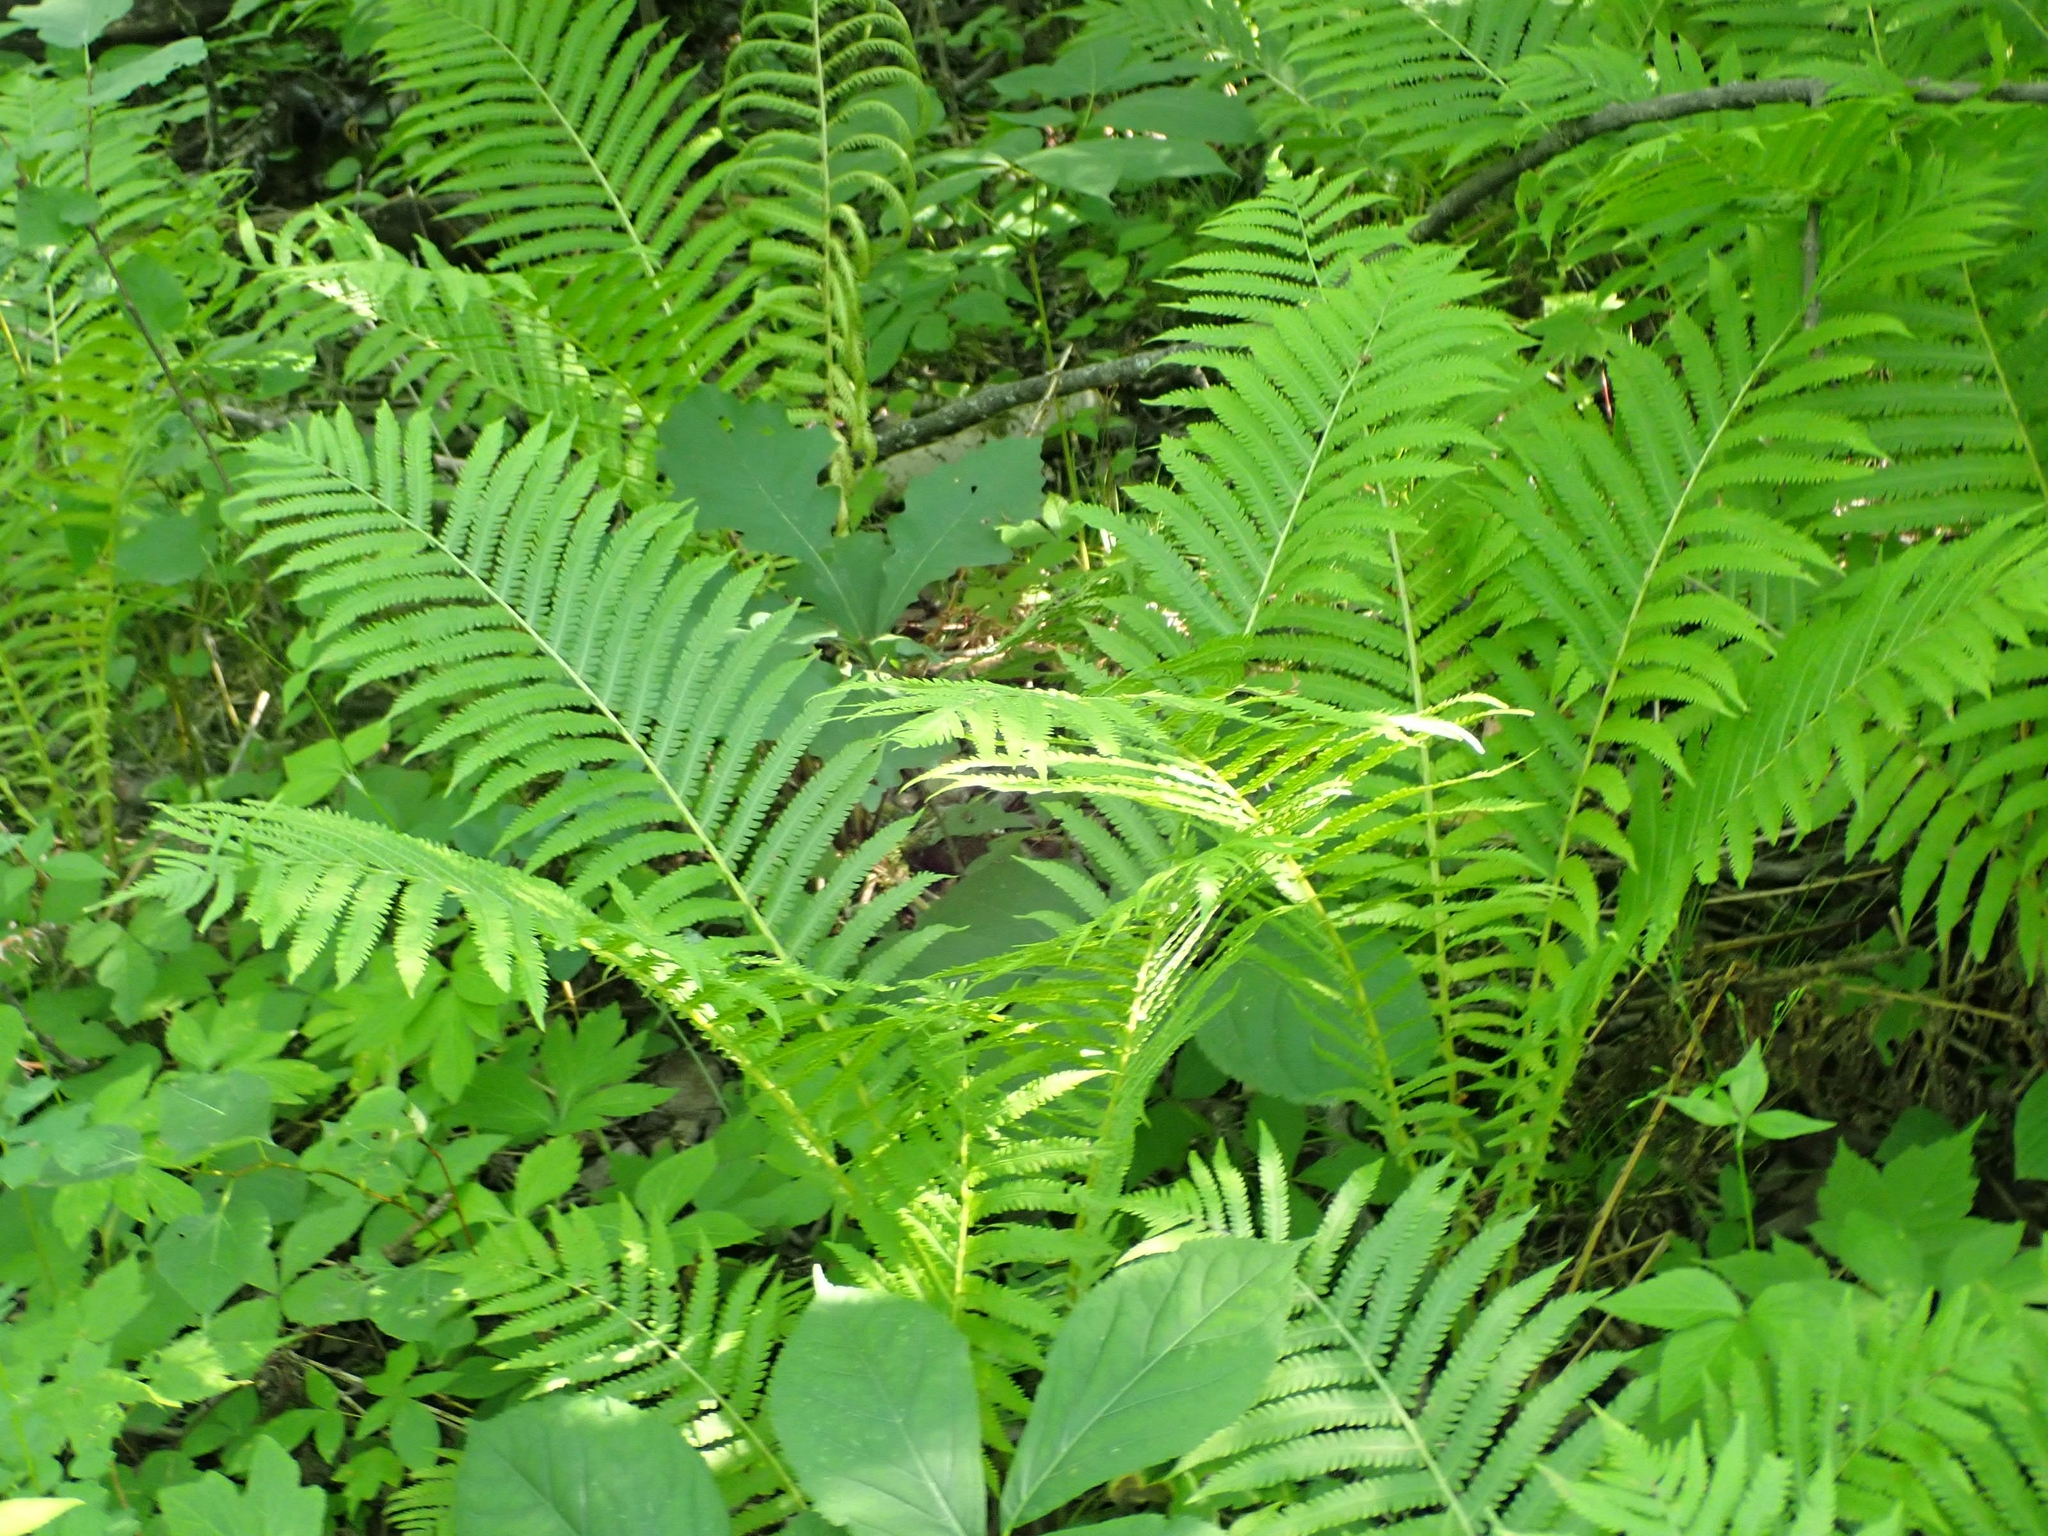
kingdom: Plantae
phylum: Tracheophyta
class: Polypodiopsida
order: Polypodiales
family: Onocleaceae
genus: Matteuccia
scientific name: Matteuccia struthiopteris
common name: Ostrich fern
